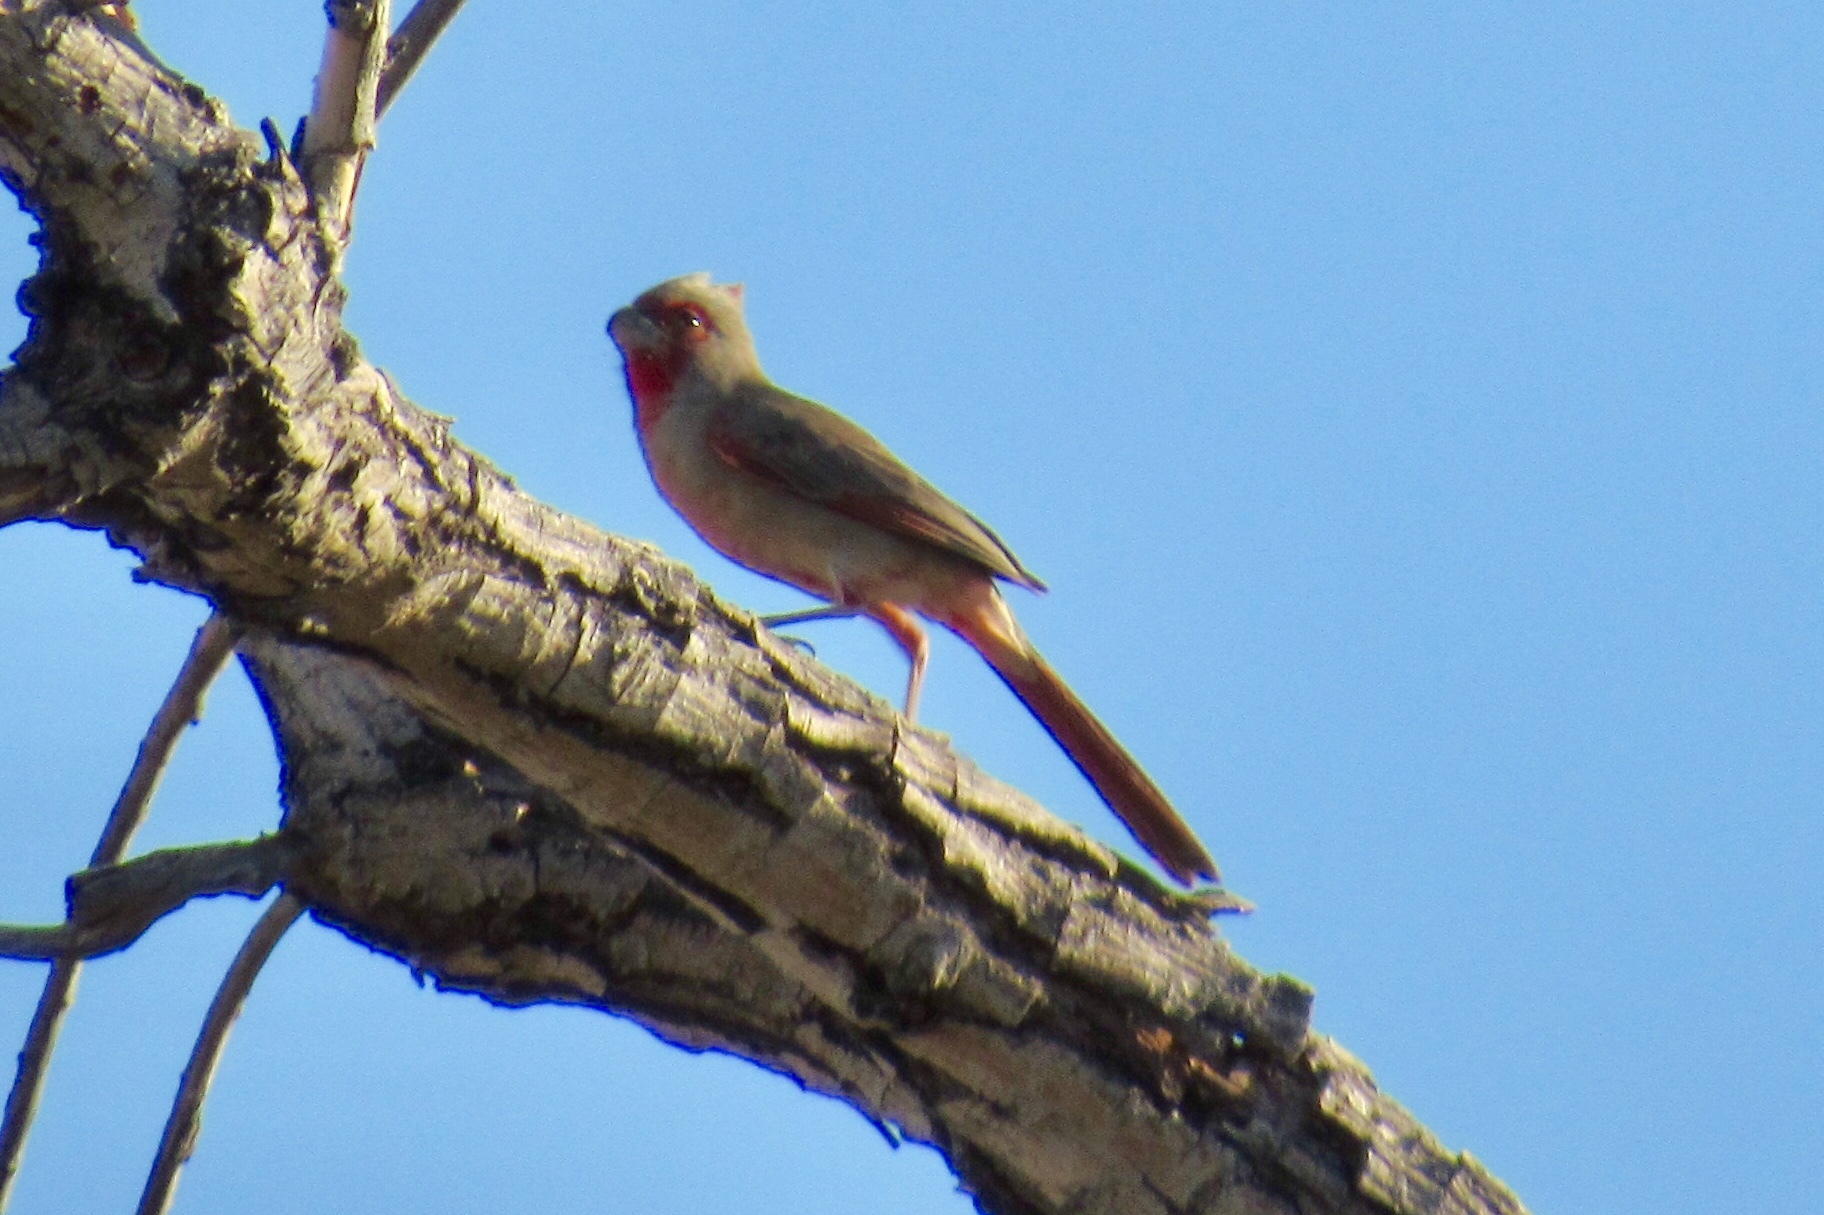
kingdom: Animalia
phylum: Chordata
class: Aves
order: Passeriformes
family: Cardinalidae
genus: Cardinalis
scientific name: Cardinalis sinuatus
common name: Pyrrhuloxia
